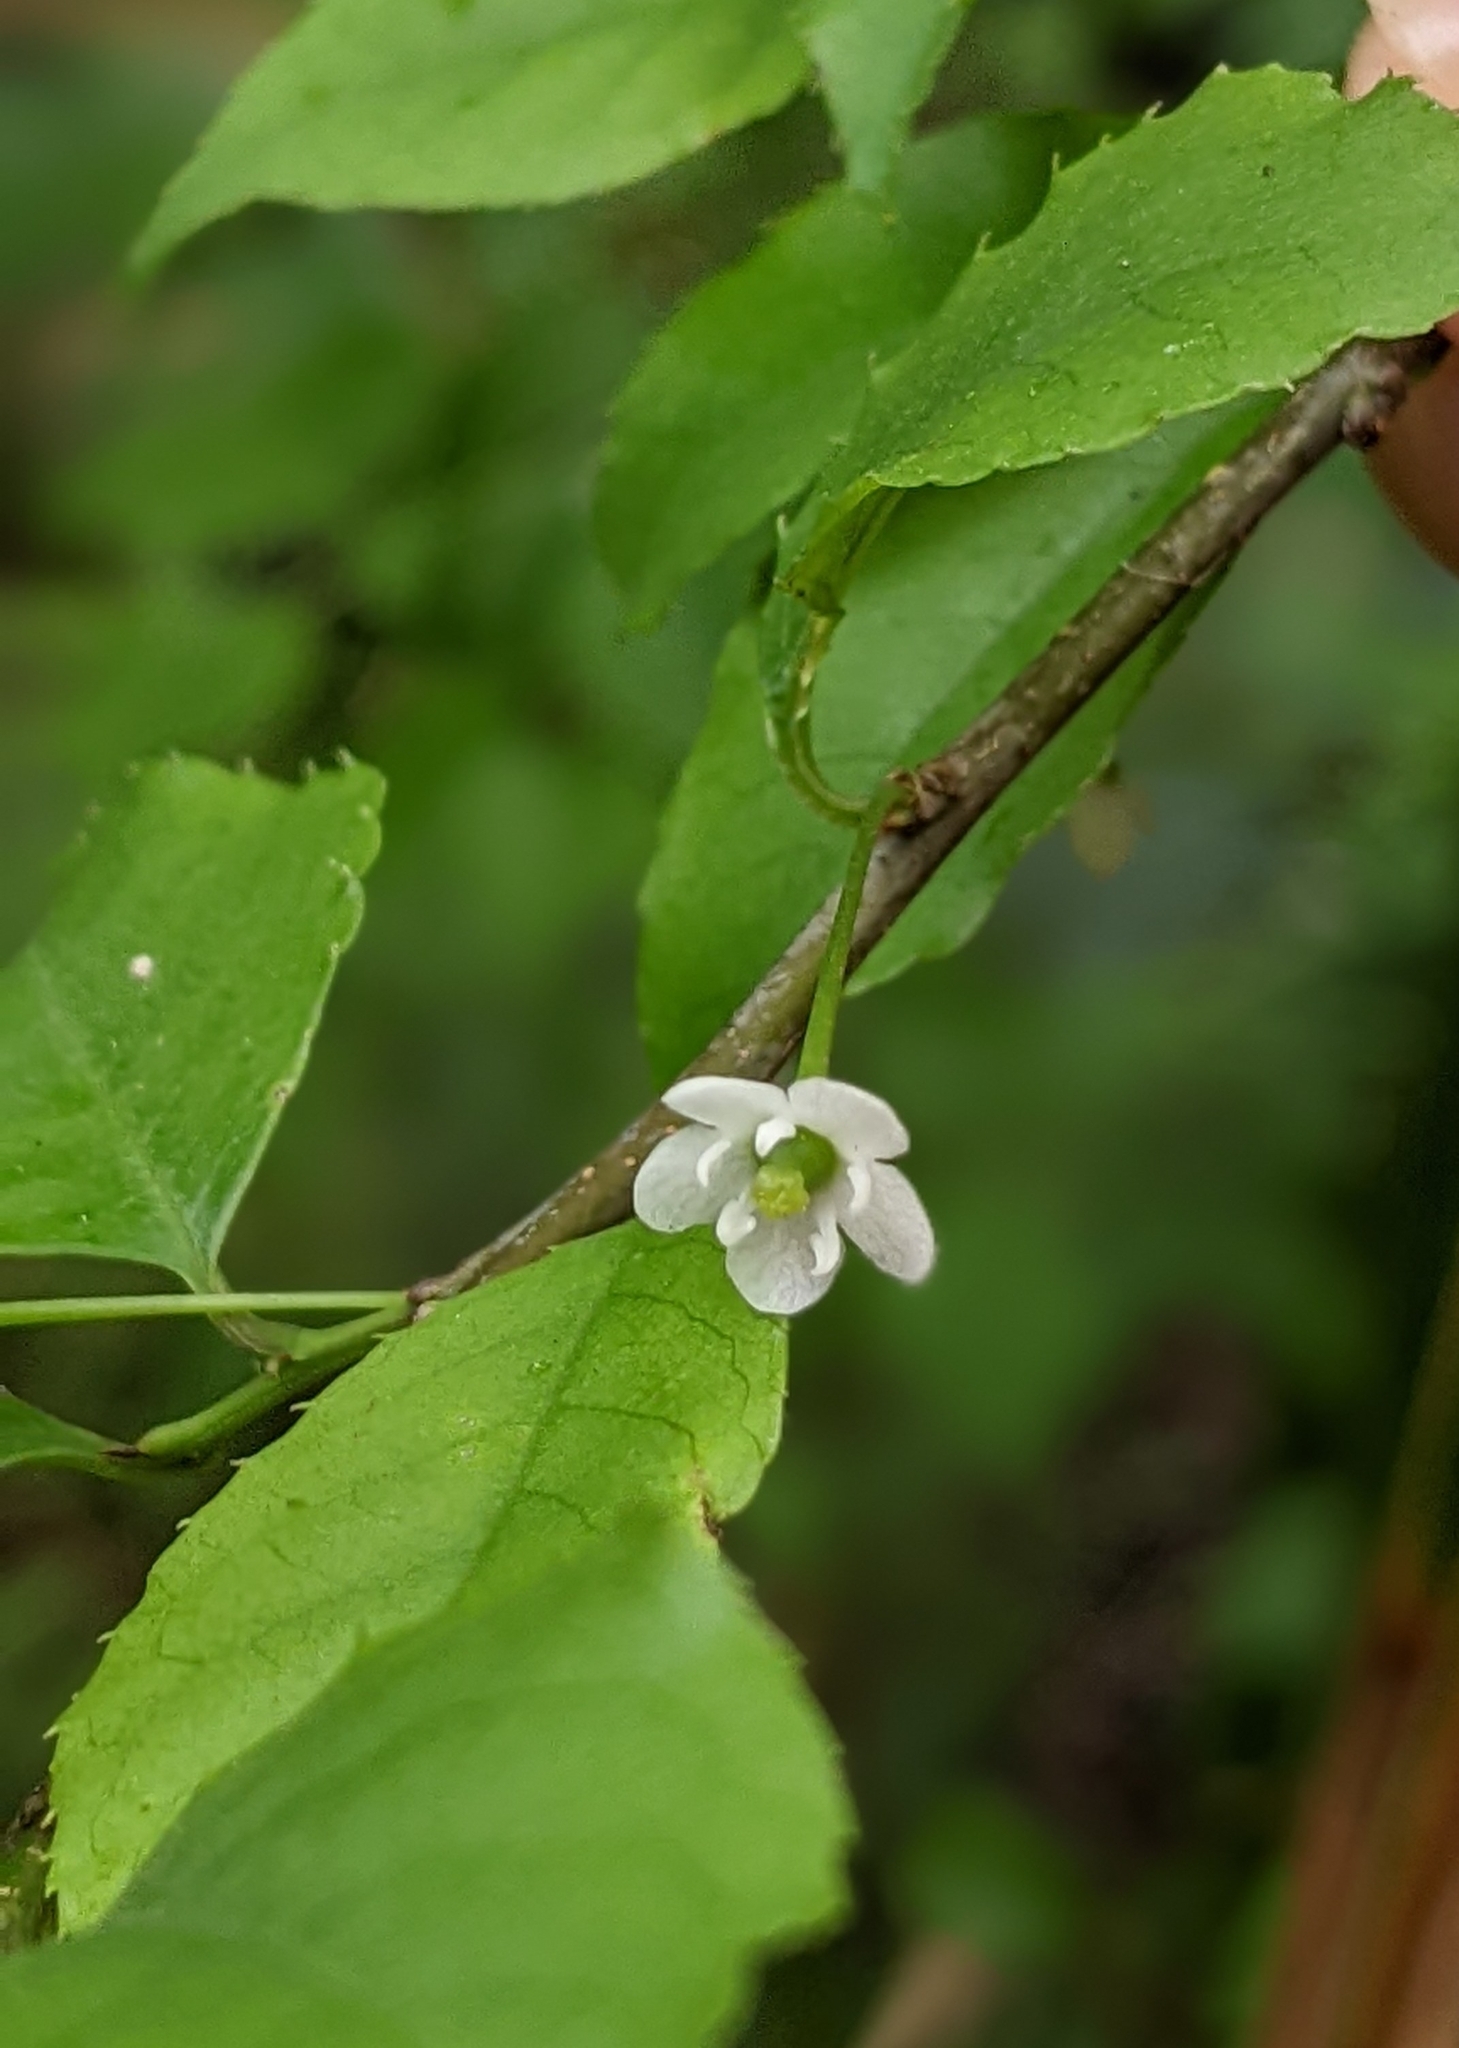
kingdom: Plantae
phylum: Tracheophyta
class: Magnoliopsida
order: Aquifoliales
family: Aquifoliaceae
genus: Ilex
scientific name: Ilex asprella
